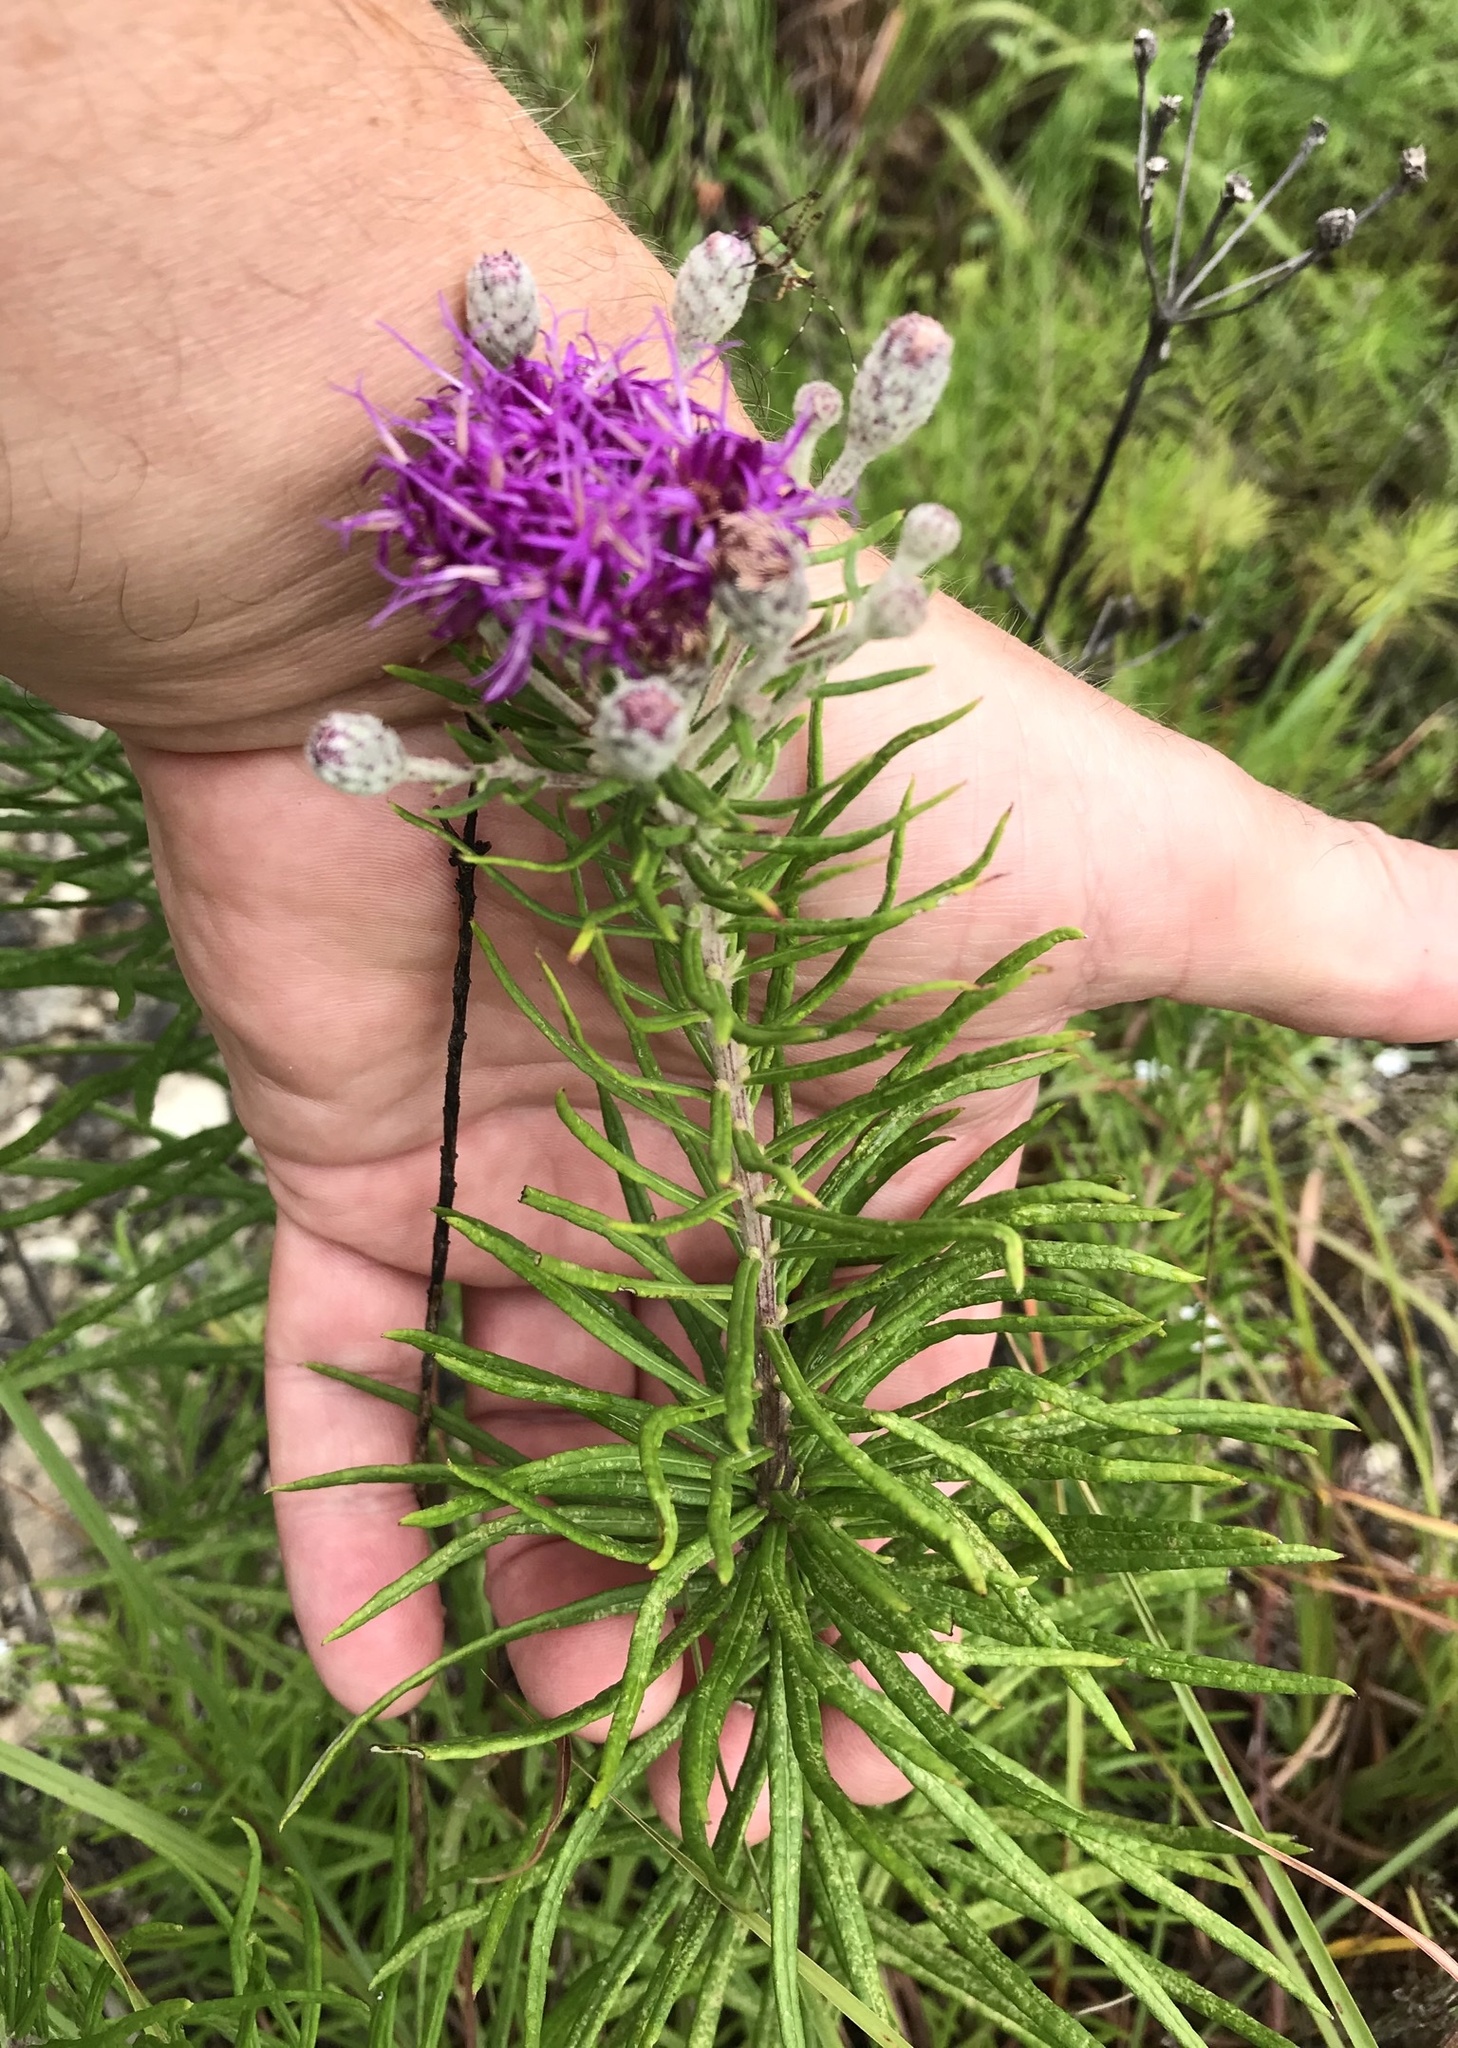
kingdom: Plantae
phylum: Tracheophyta
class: Magnoliopsida
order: Asterales
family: Asteraceae
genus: Vernonia
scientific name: Vernonia lindheimeri
